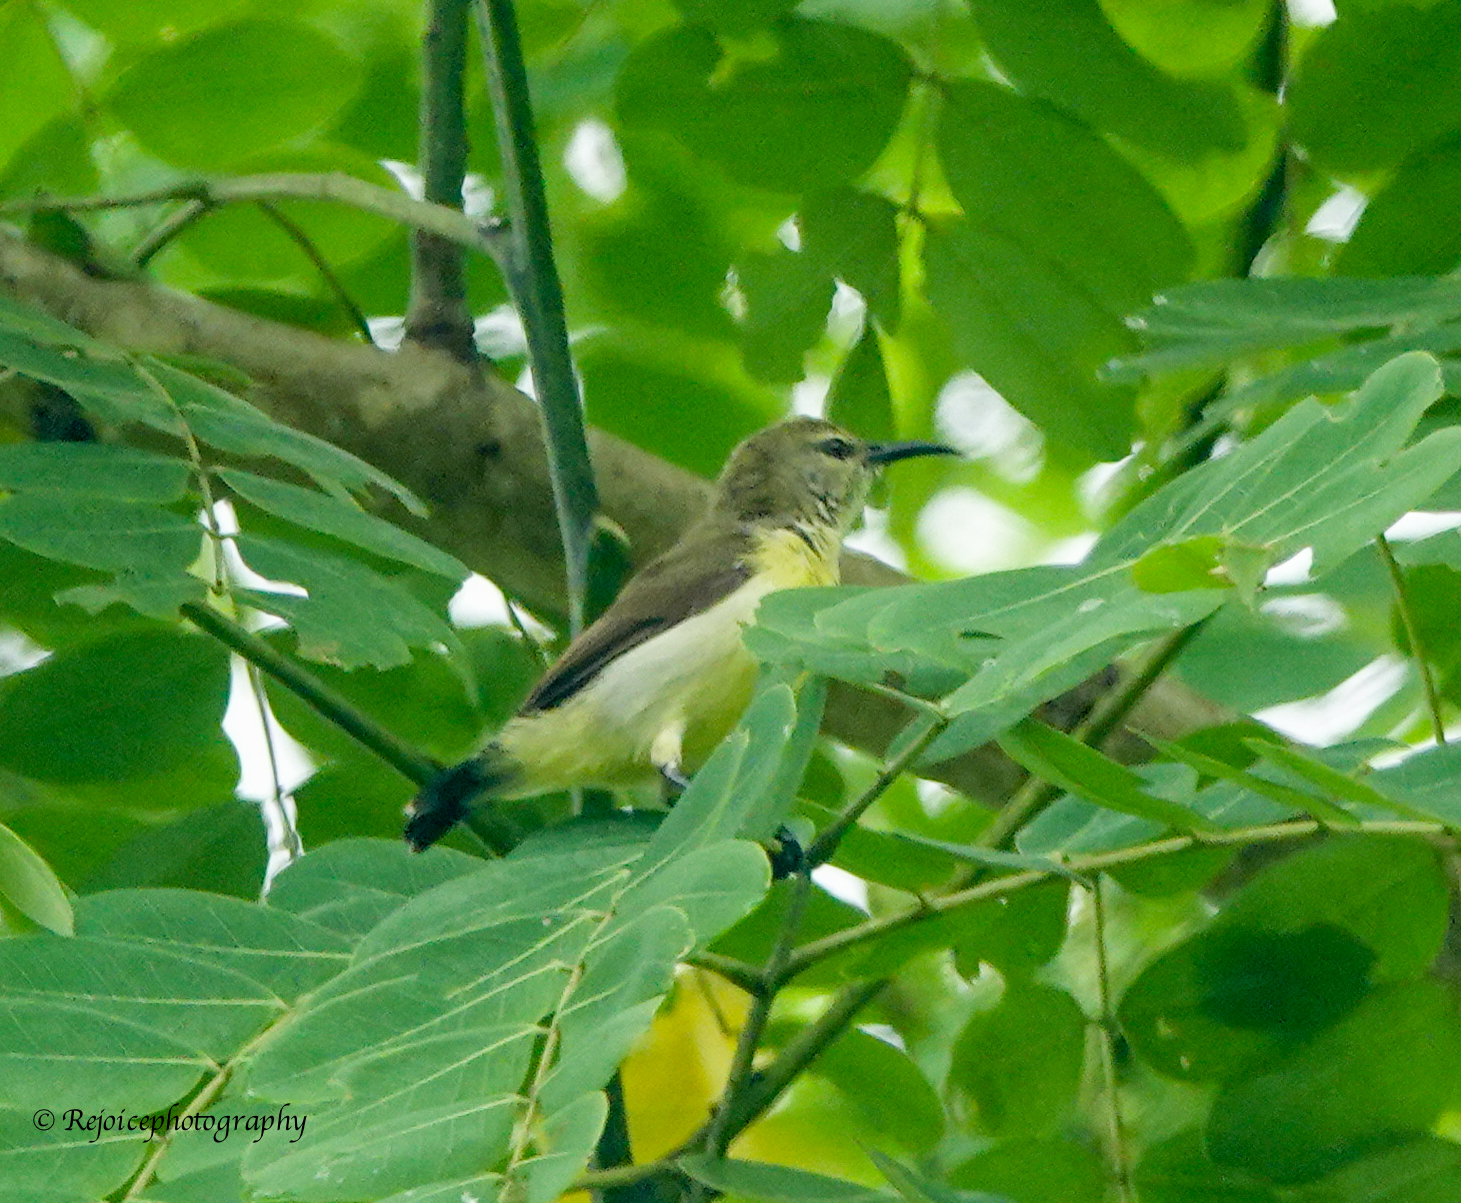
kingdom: Animalia
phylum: Chordata
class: Aves
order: Passeriformes
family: Nectariniidae
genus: Leptocoma
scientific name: Leptocoma zeylonica
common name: Purple-rumped sunbird
